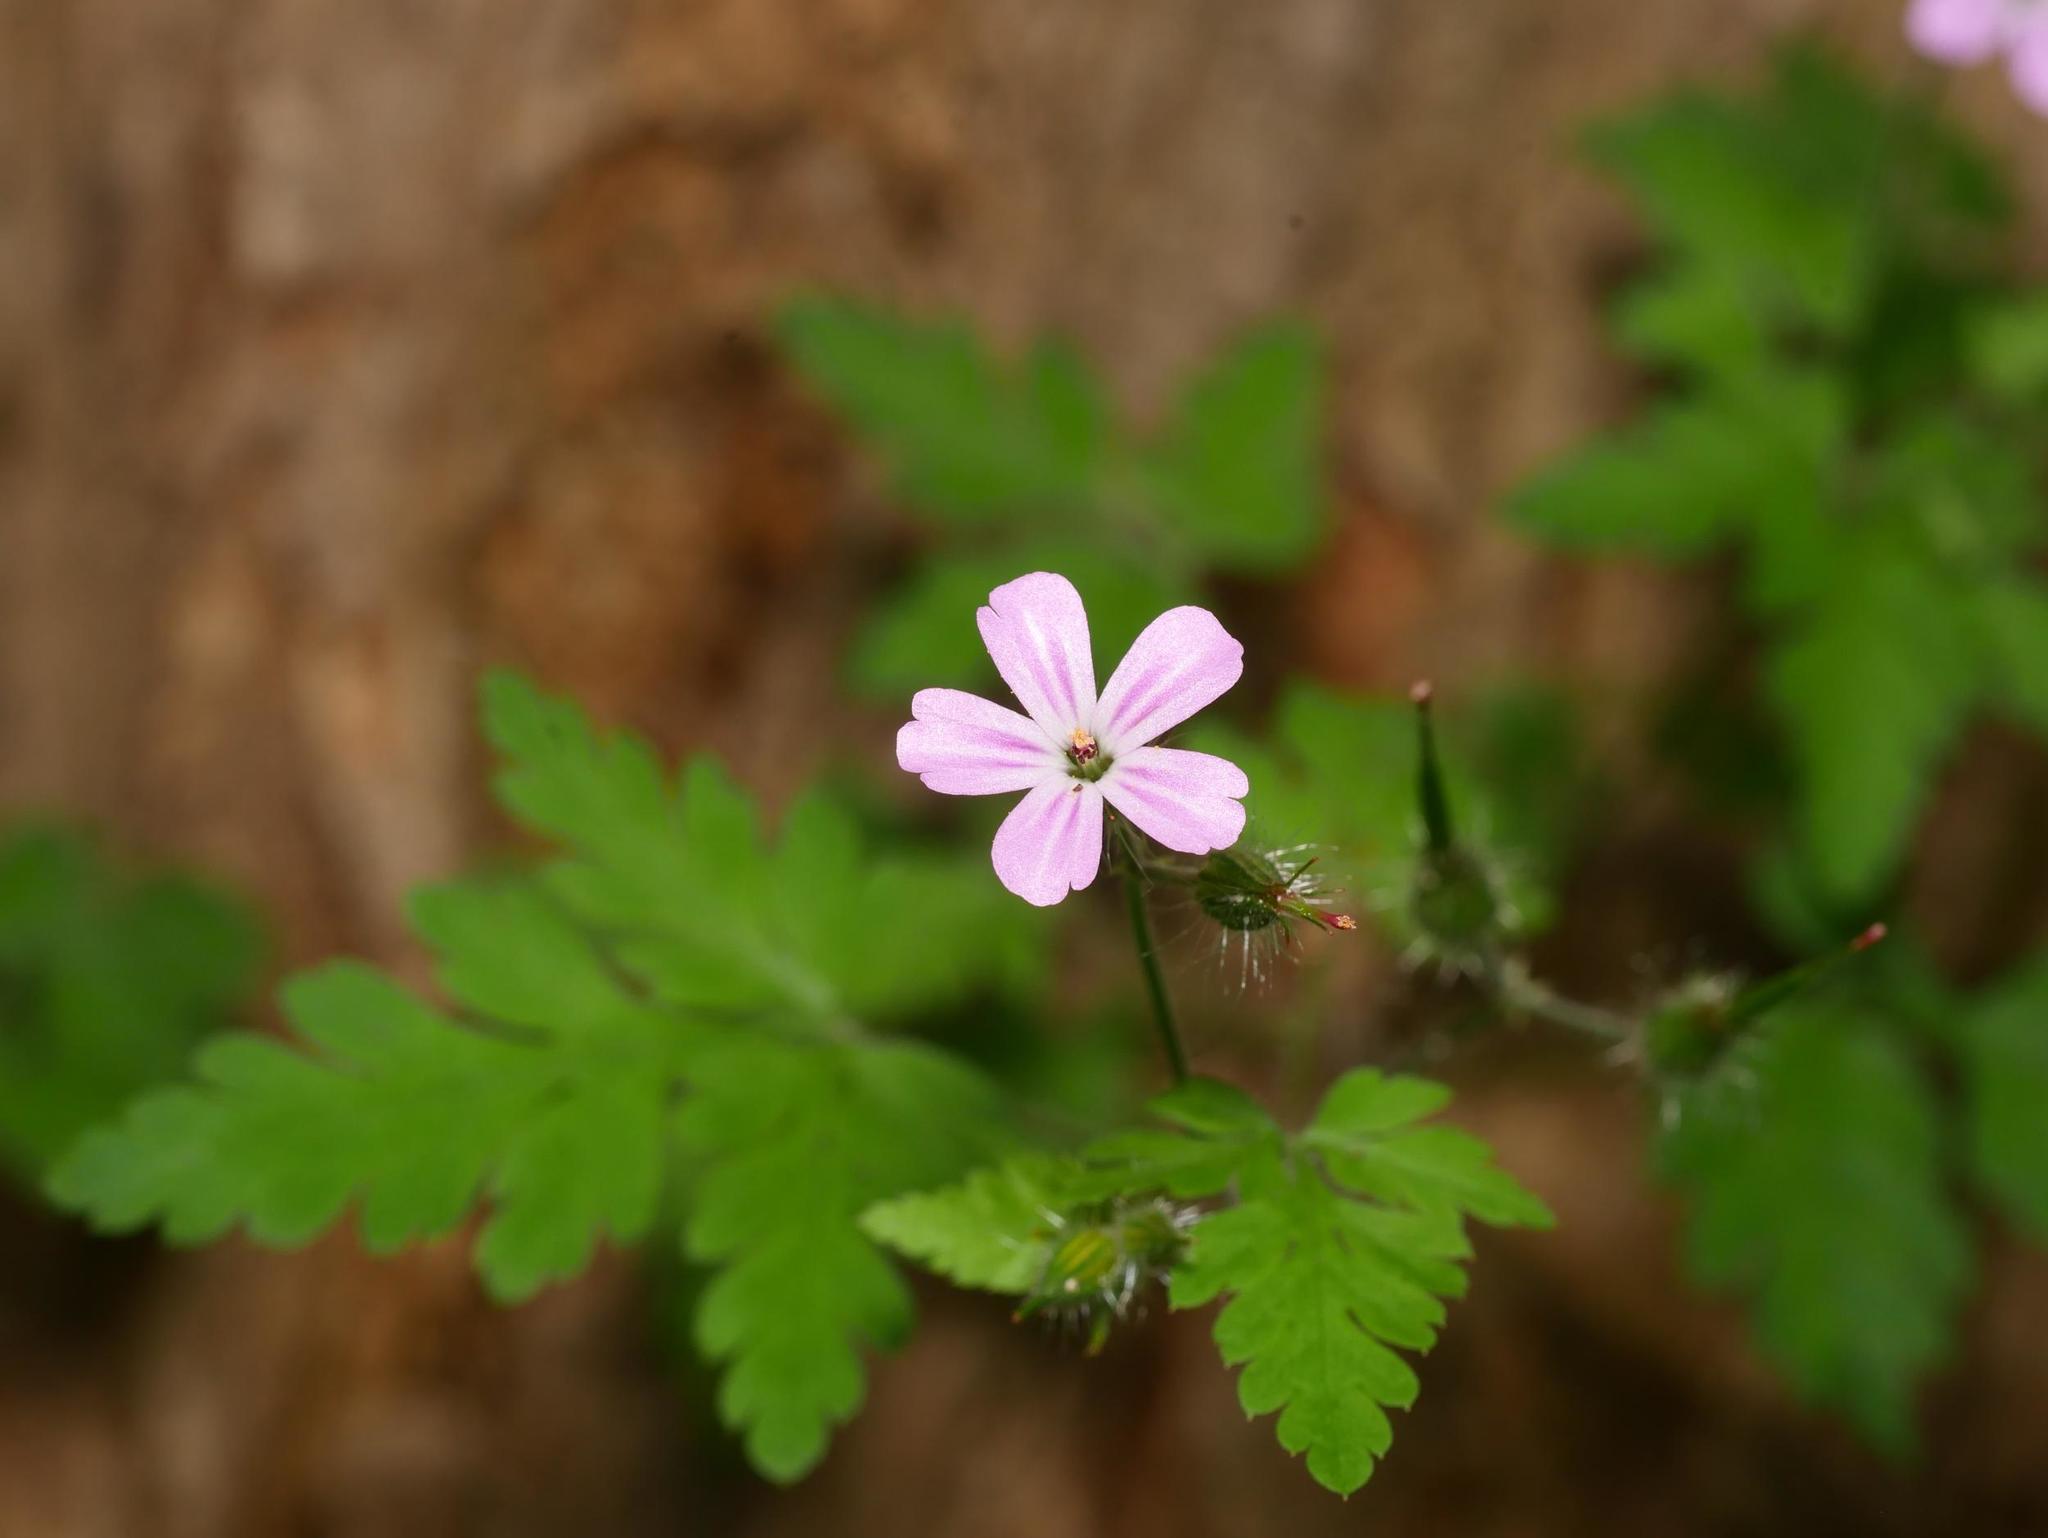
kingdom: Plantae
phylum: Tracheophyta
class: Magnoliopsida
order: Geraniales
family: Geraniaceae
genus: Geranium
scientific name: Geranium robertianum
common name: Herb-robert
